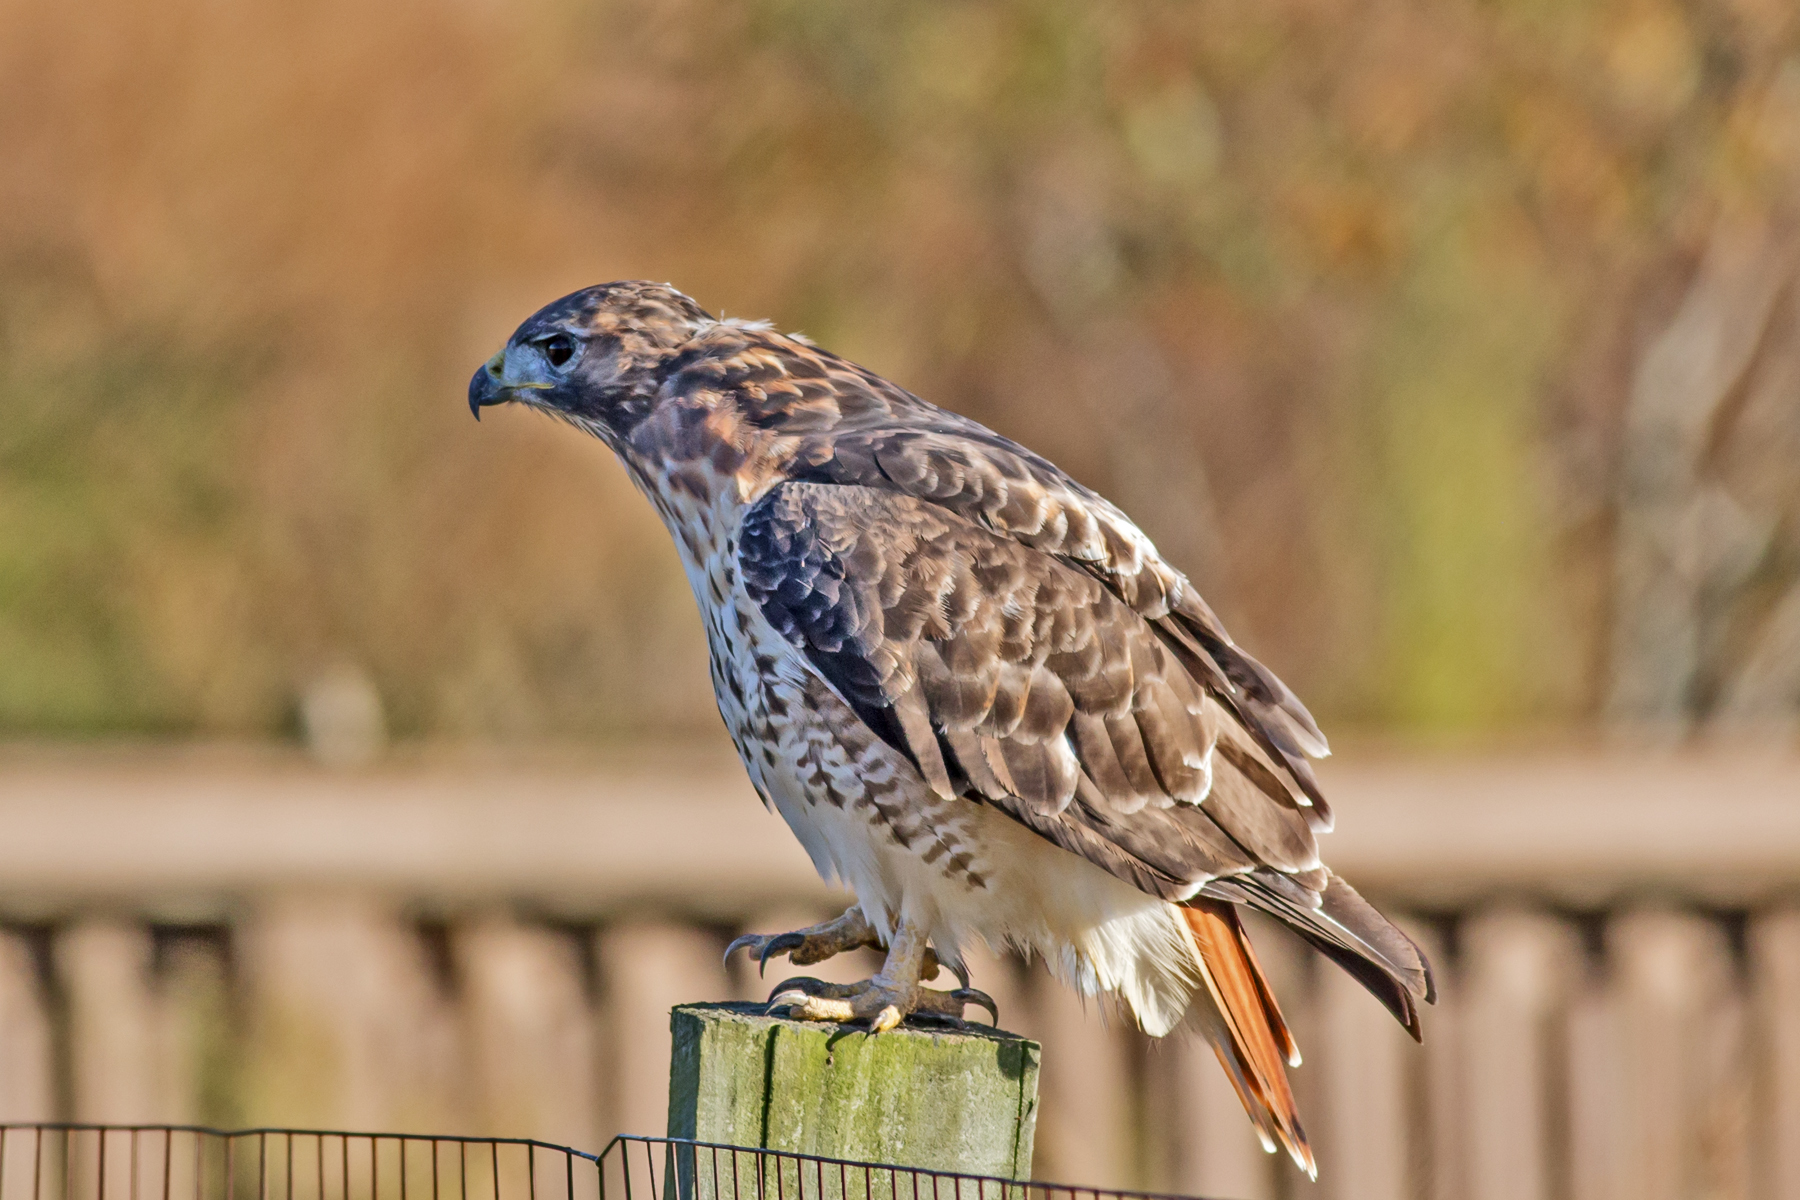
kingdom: Animalia
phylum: Chordata
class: Aves
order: Accipitriformes
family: Accipitridae
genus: Buteo
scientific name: Buteo jamaicensis
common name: Red-tailed hawk
